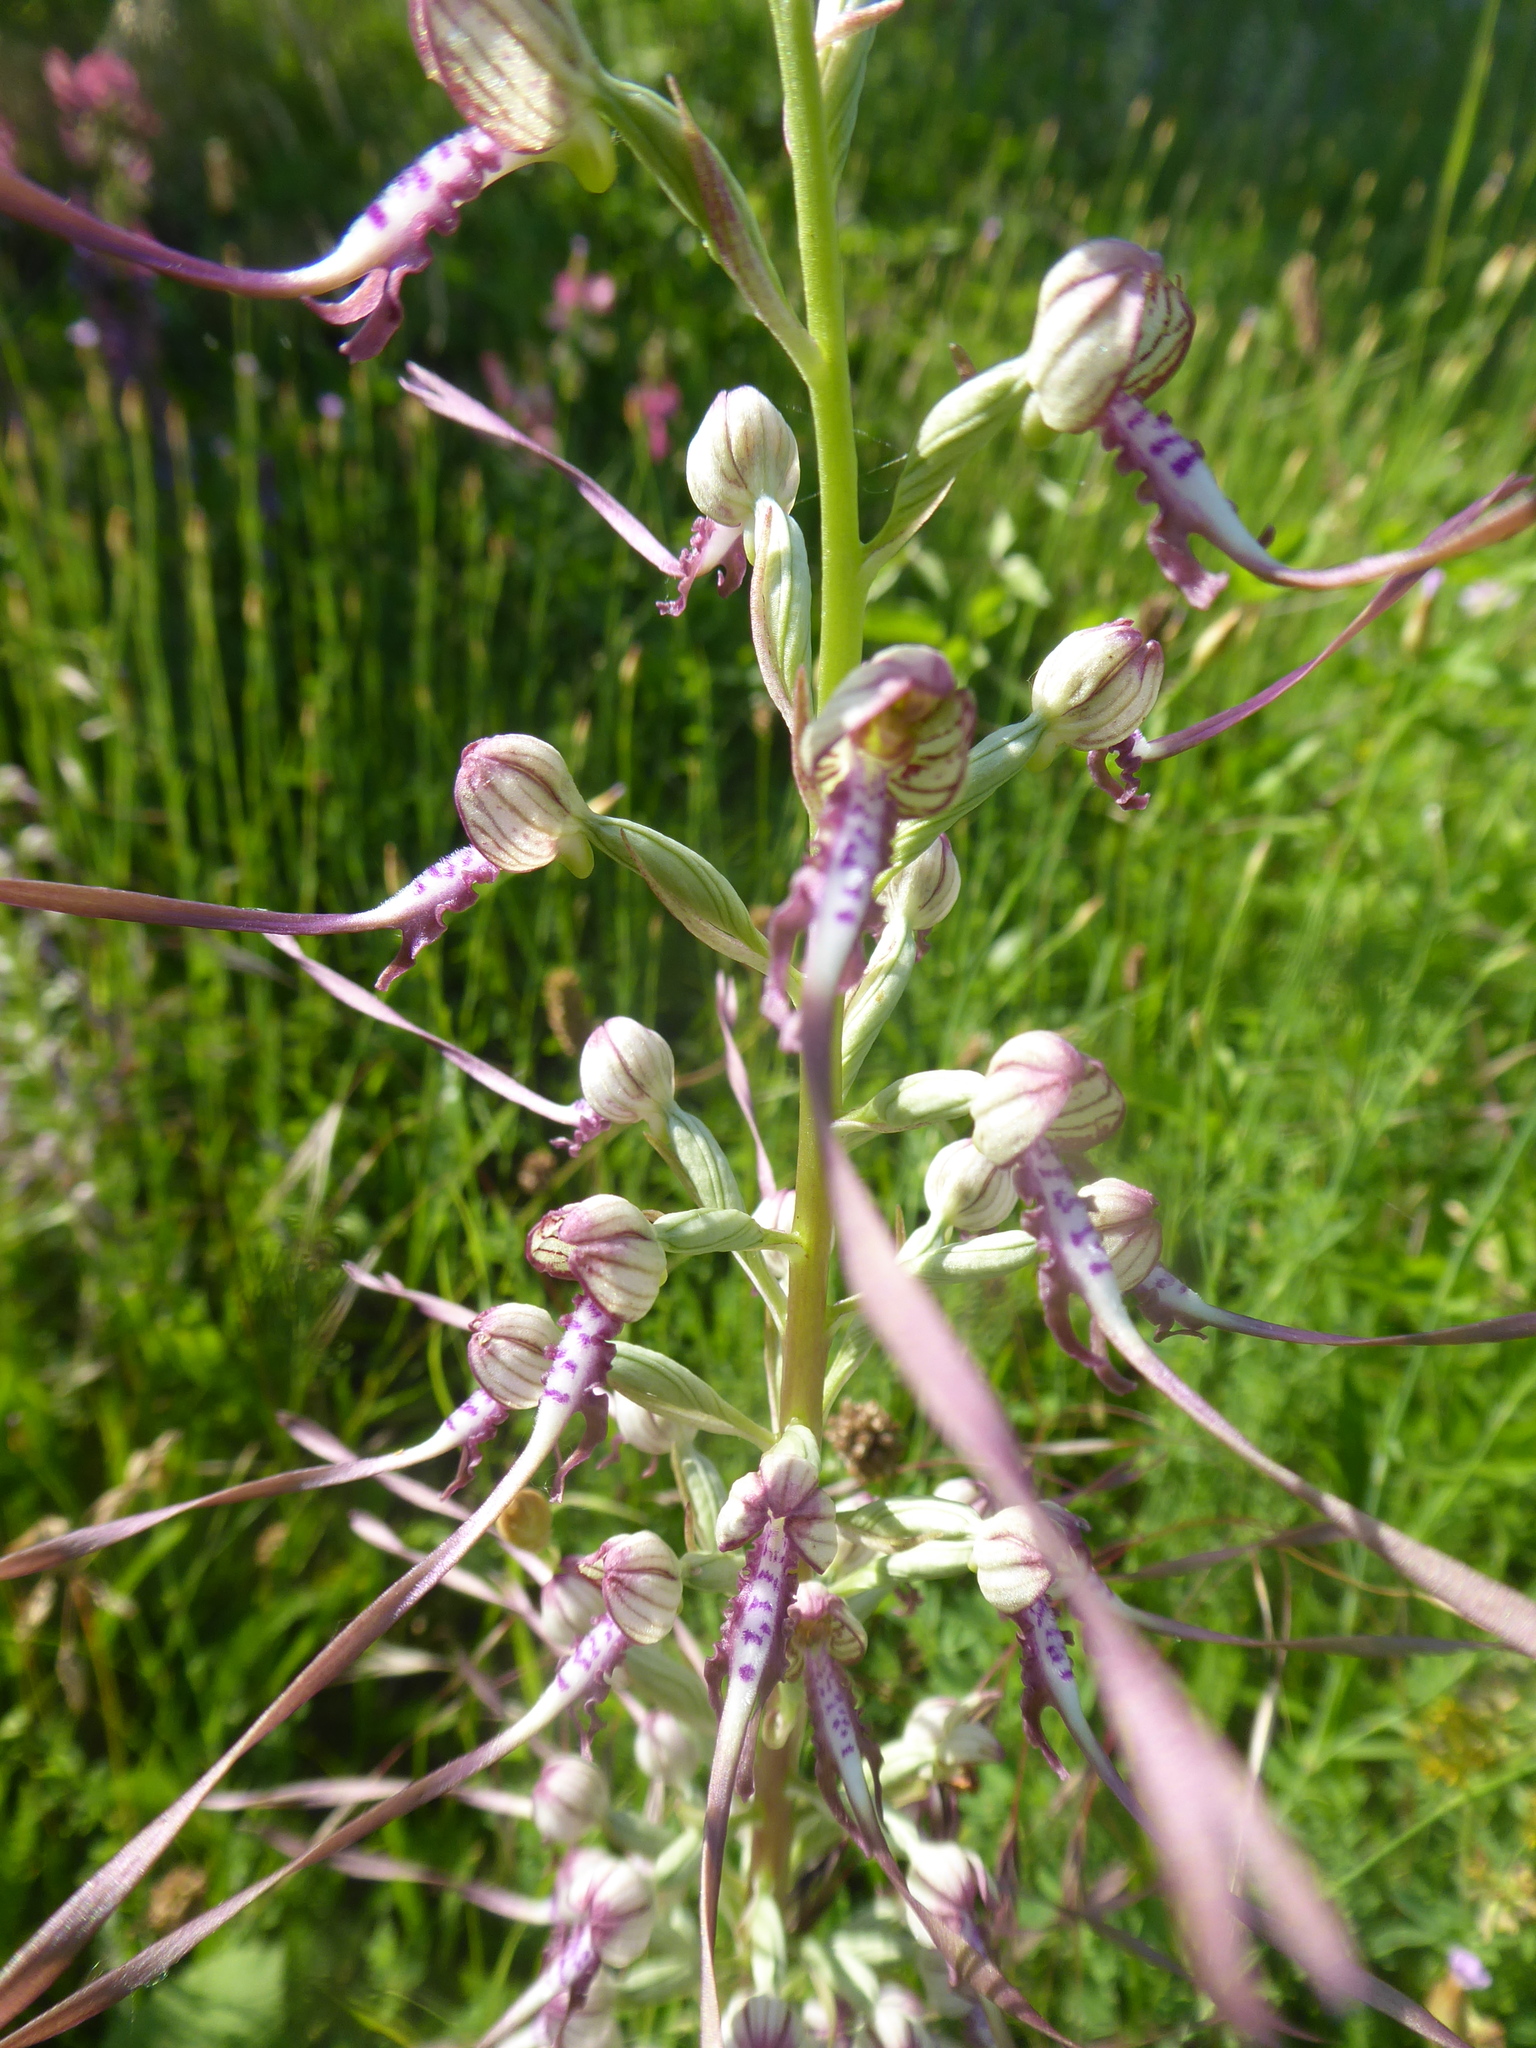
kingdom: Plantae
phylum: Tracheophyta
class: Liliopsida
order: Asparagales
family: Orchidaceae
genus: Himantoglossum
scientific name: Himantoglossum adriaticum
